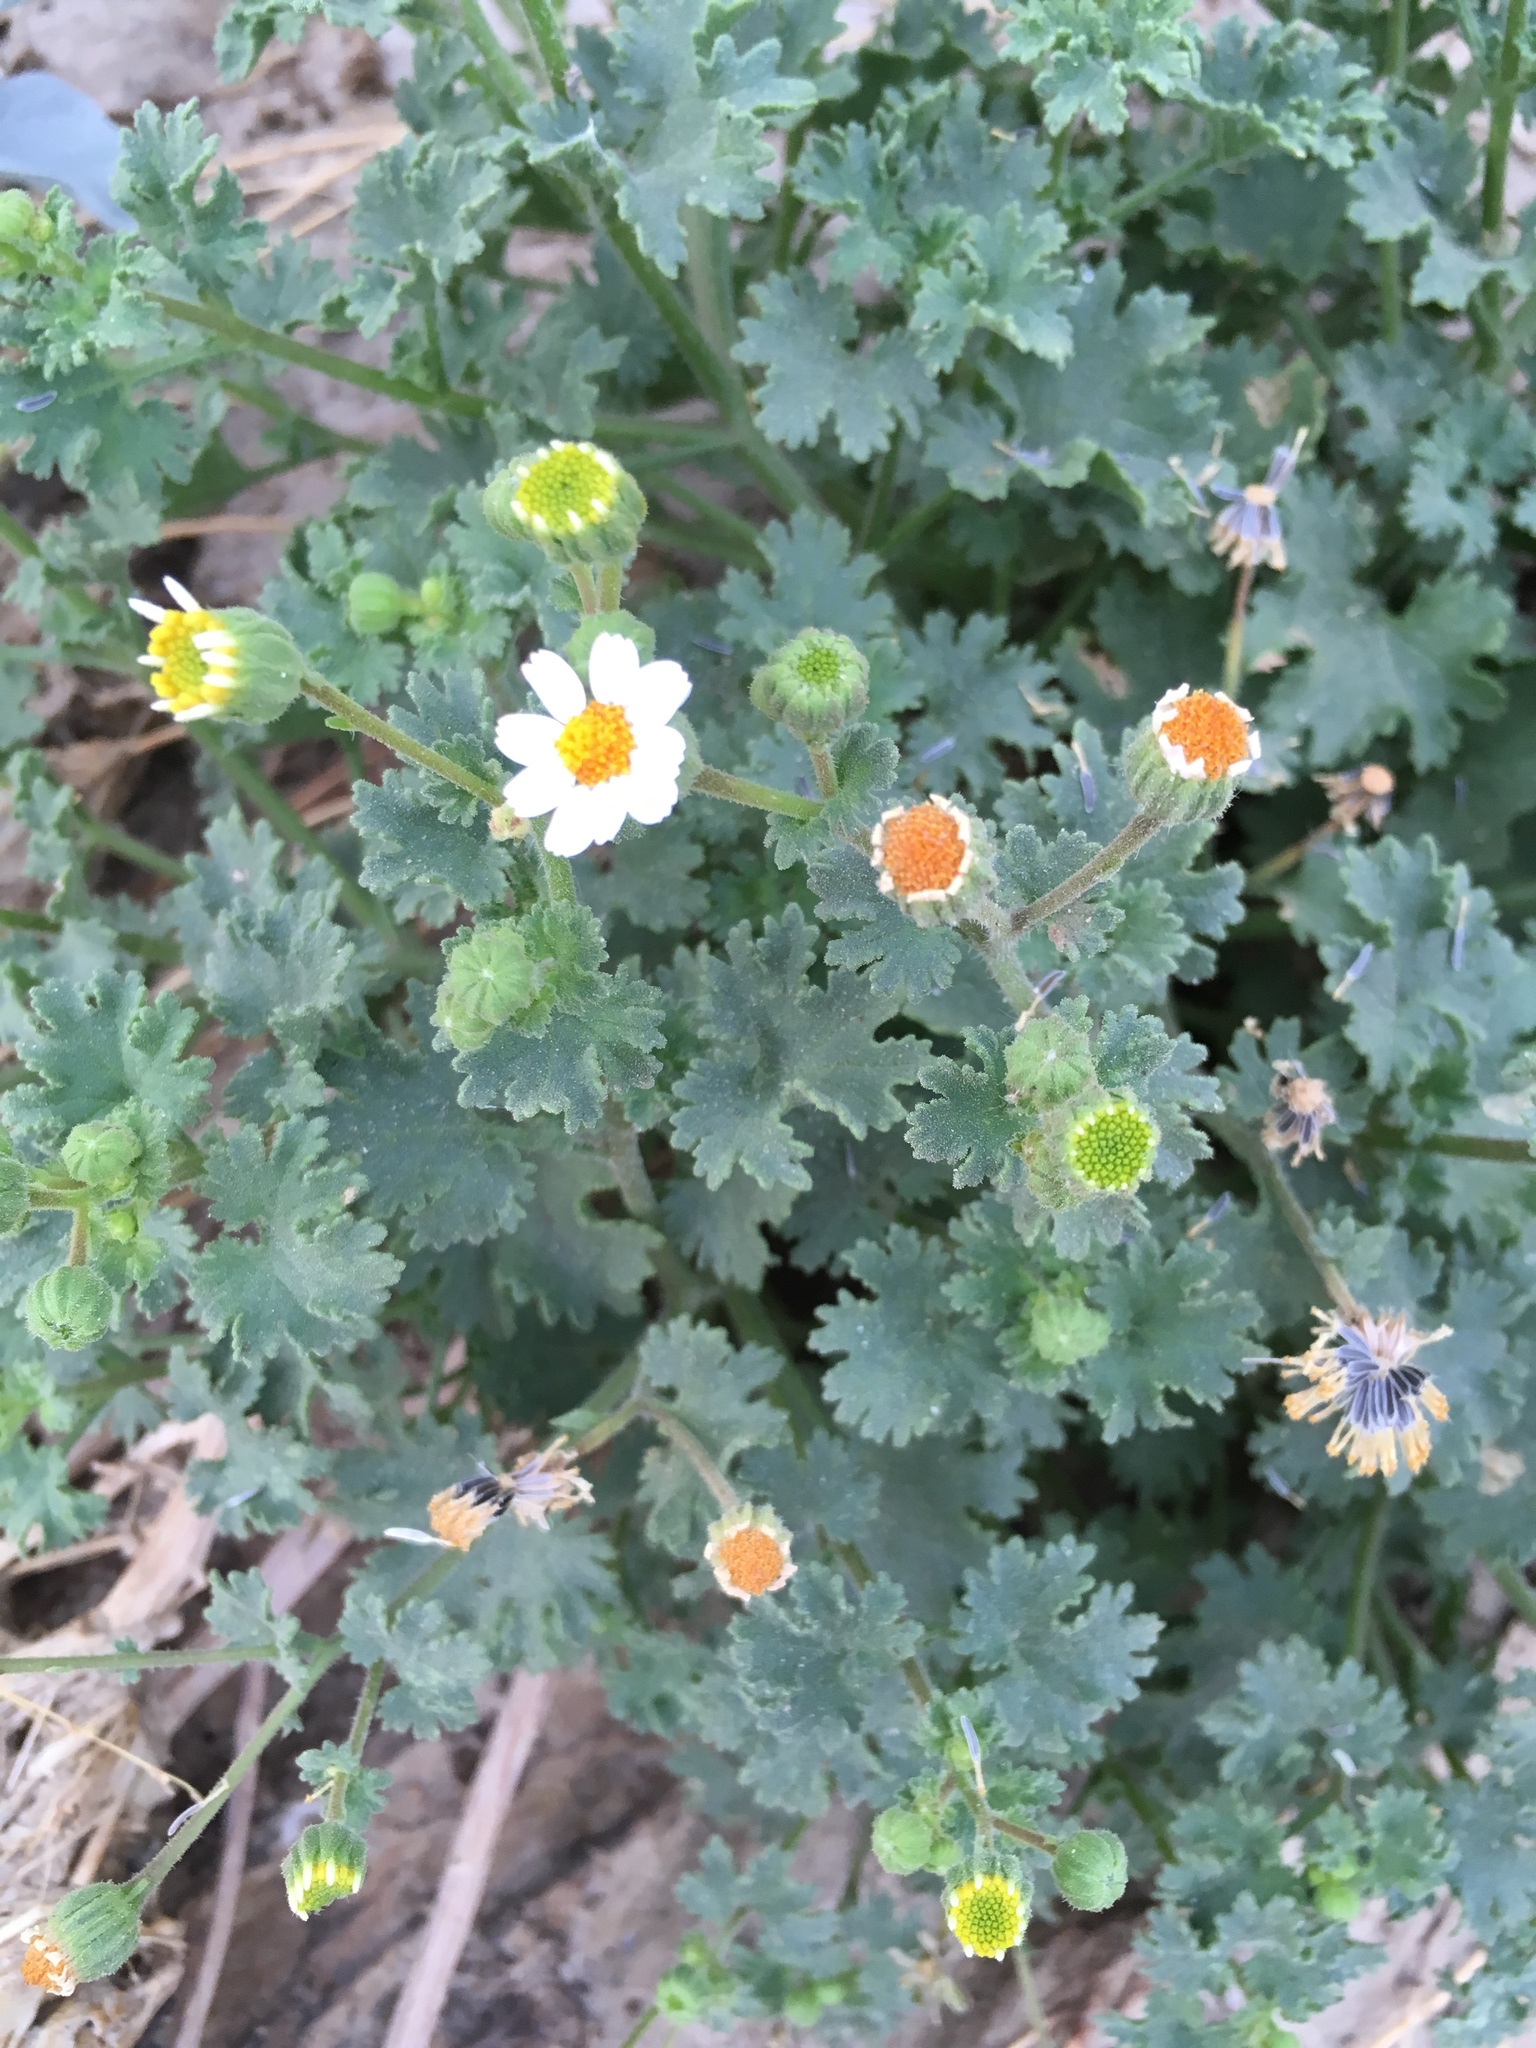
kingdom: Plantae
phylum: Tracheophyta
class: Magnoliopsida
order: Asterales
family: Asteraceae
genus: Laphamia
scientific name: Laphamia emoryi
